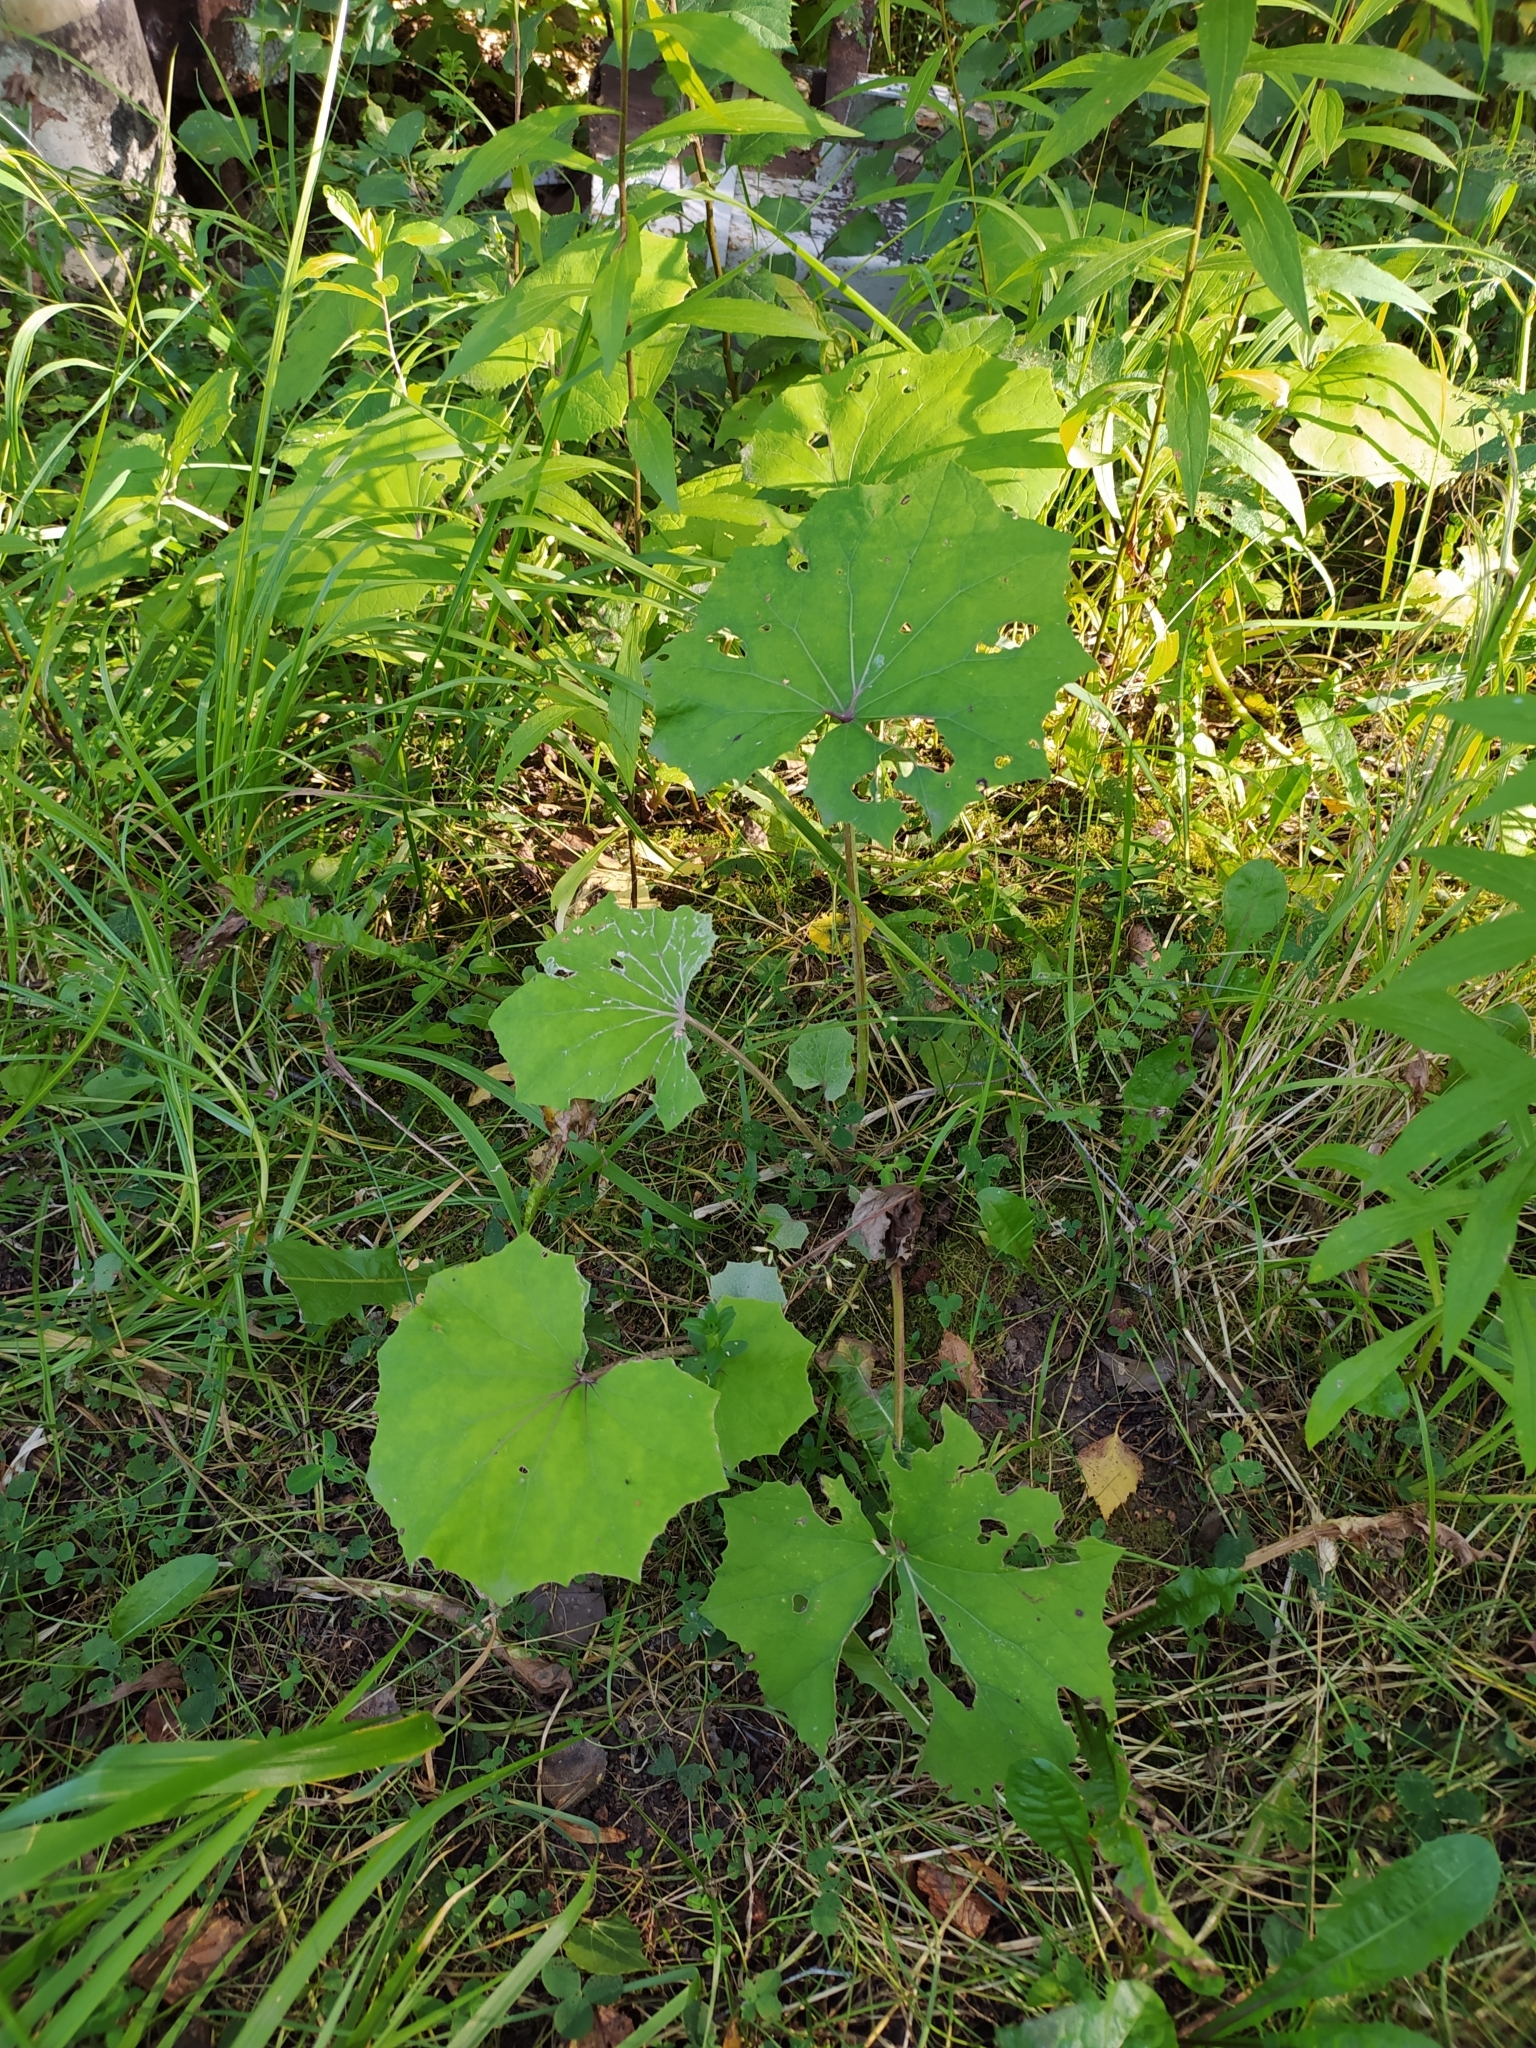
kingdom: Plantae
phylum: Tracheophyta
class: Magnoliopsida
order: Asterales
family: Asteraceae
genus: Tussilago
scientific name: Tussilago farfara
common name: Coltsfoot
